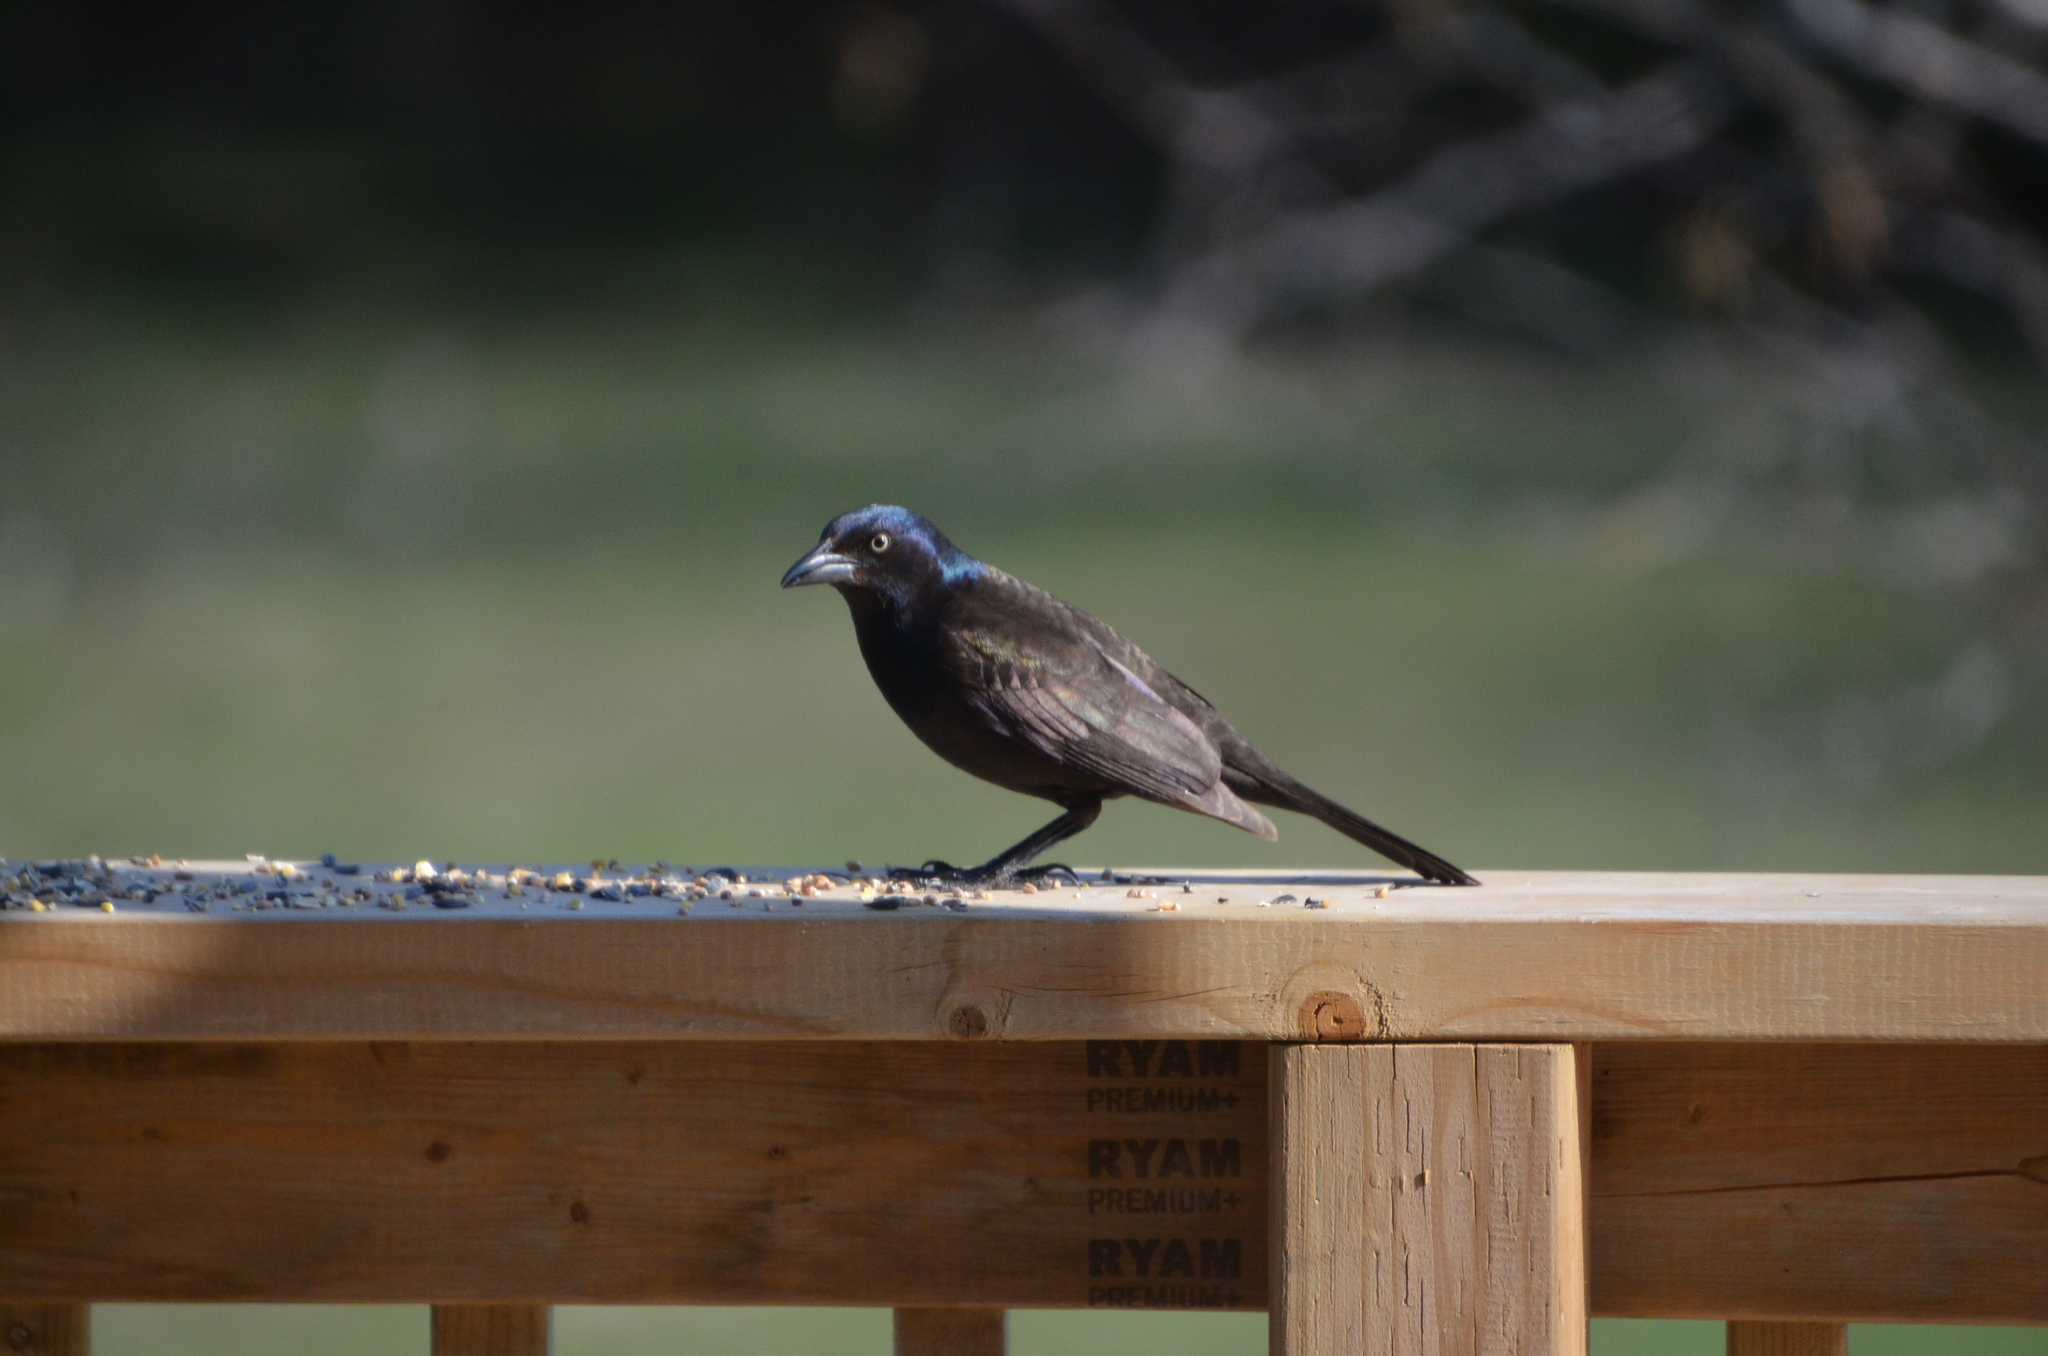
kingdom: Animalia
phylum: Chordata
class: Aves
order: Passeriformes
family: Icteridae
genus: Quiscalus
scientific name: Quiscalus quiscula
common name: Common grackle
